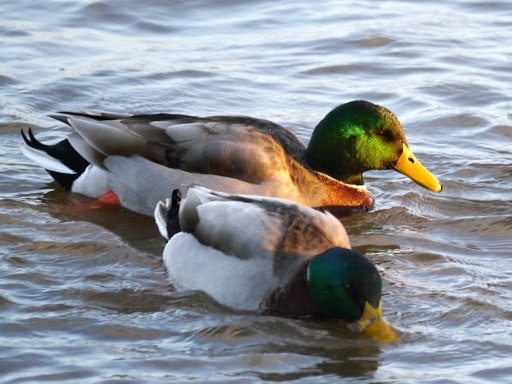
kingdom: Animalia
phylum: Chordata
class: Aves
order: Anseriformes
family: Anatidae
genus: Anas
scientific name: Anas platyrhynchos
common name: Mallard
